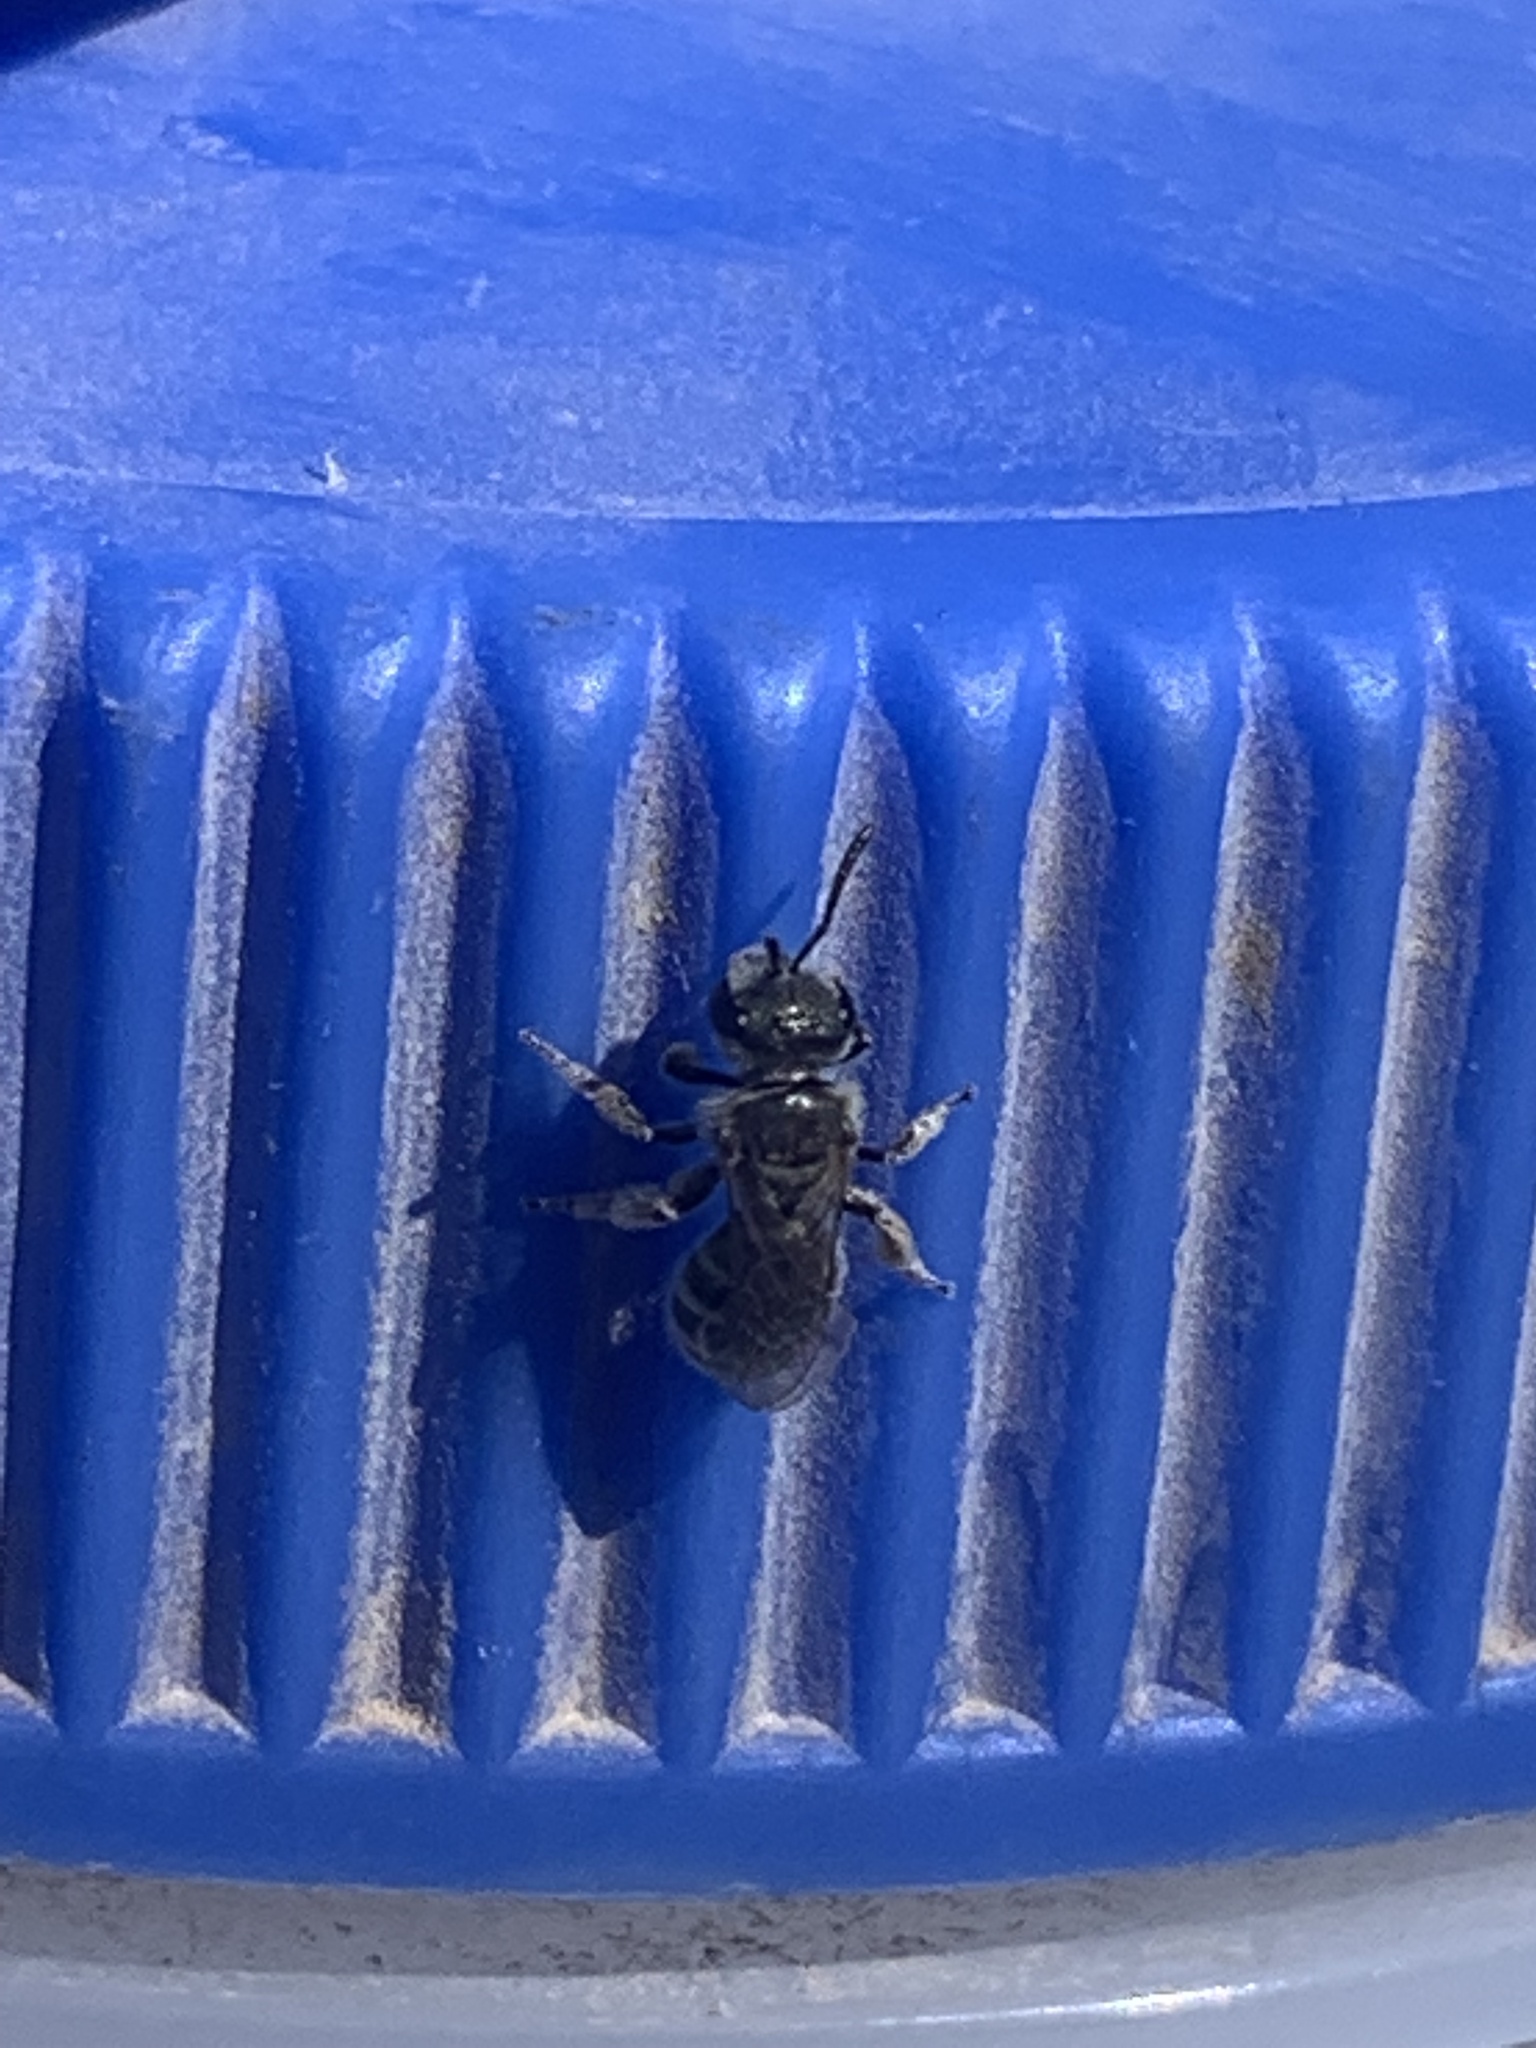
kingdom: Animalia
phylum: Arthropoda
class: Insecta
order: Hymenoptera
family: Halictidae
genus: Halictus
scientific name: Halictus tripartitus
